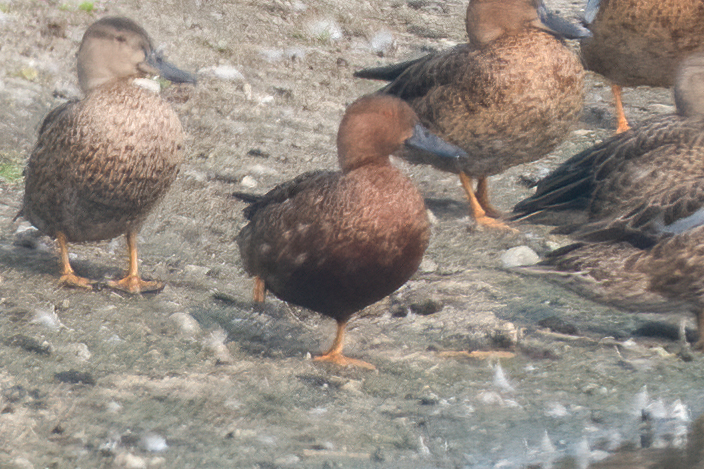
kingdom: Animalia
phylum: Chordata
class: Aves
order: Anseriformes
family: Anatidae
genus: Spatula
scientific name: Spatula cyanoptera
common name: Cinnamon teal
